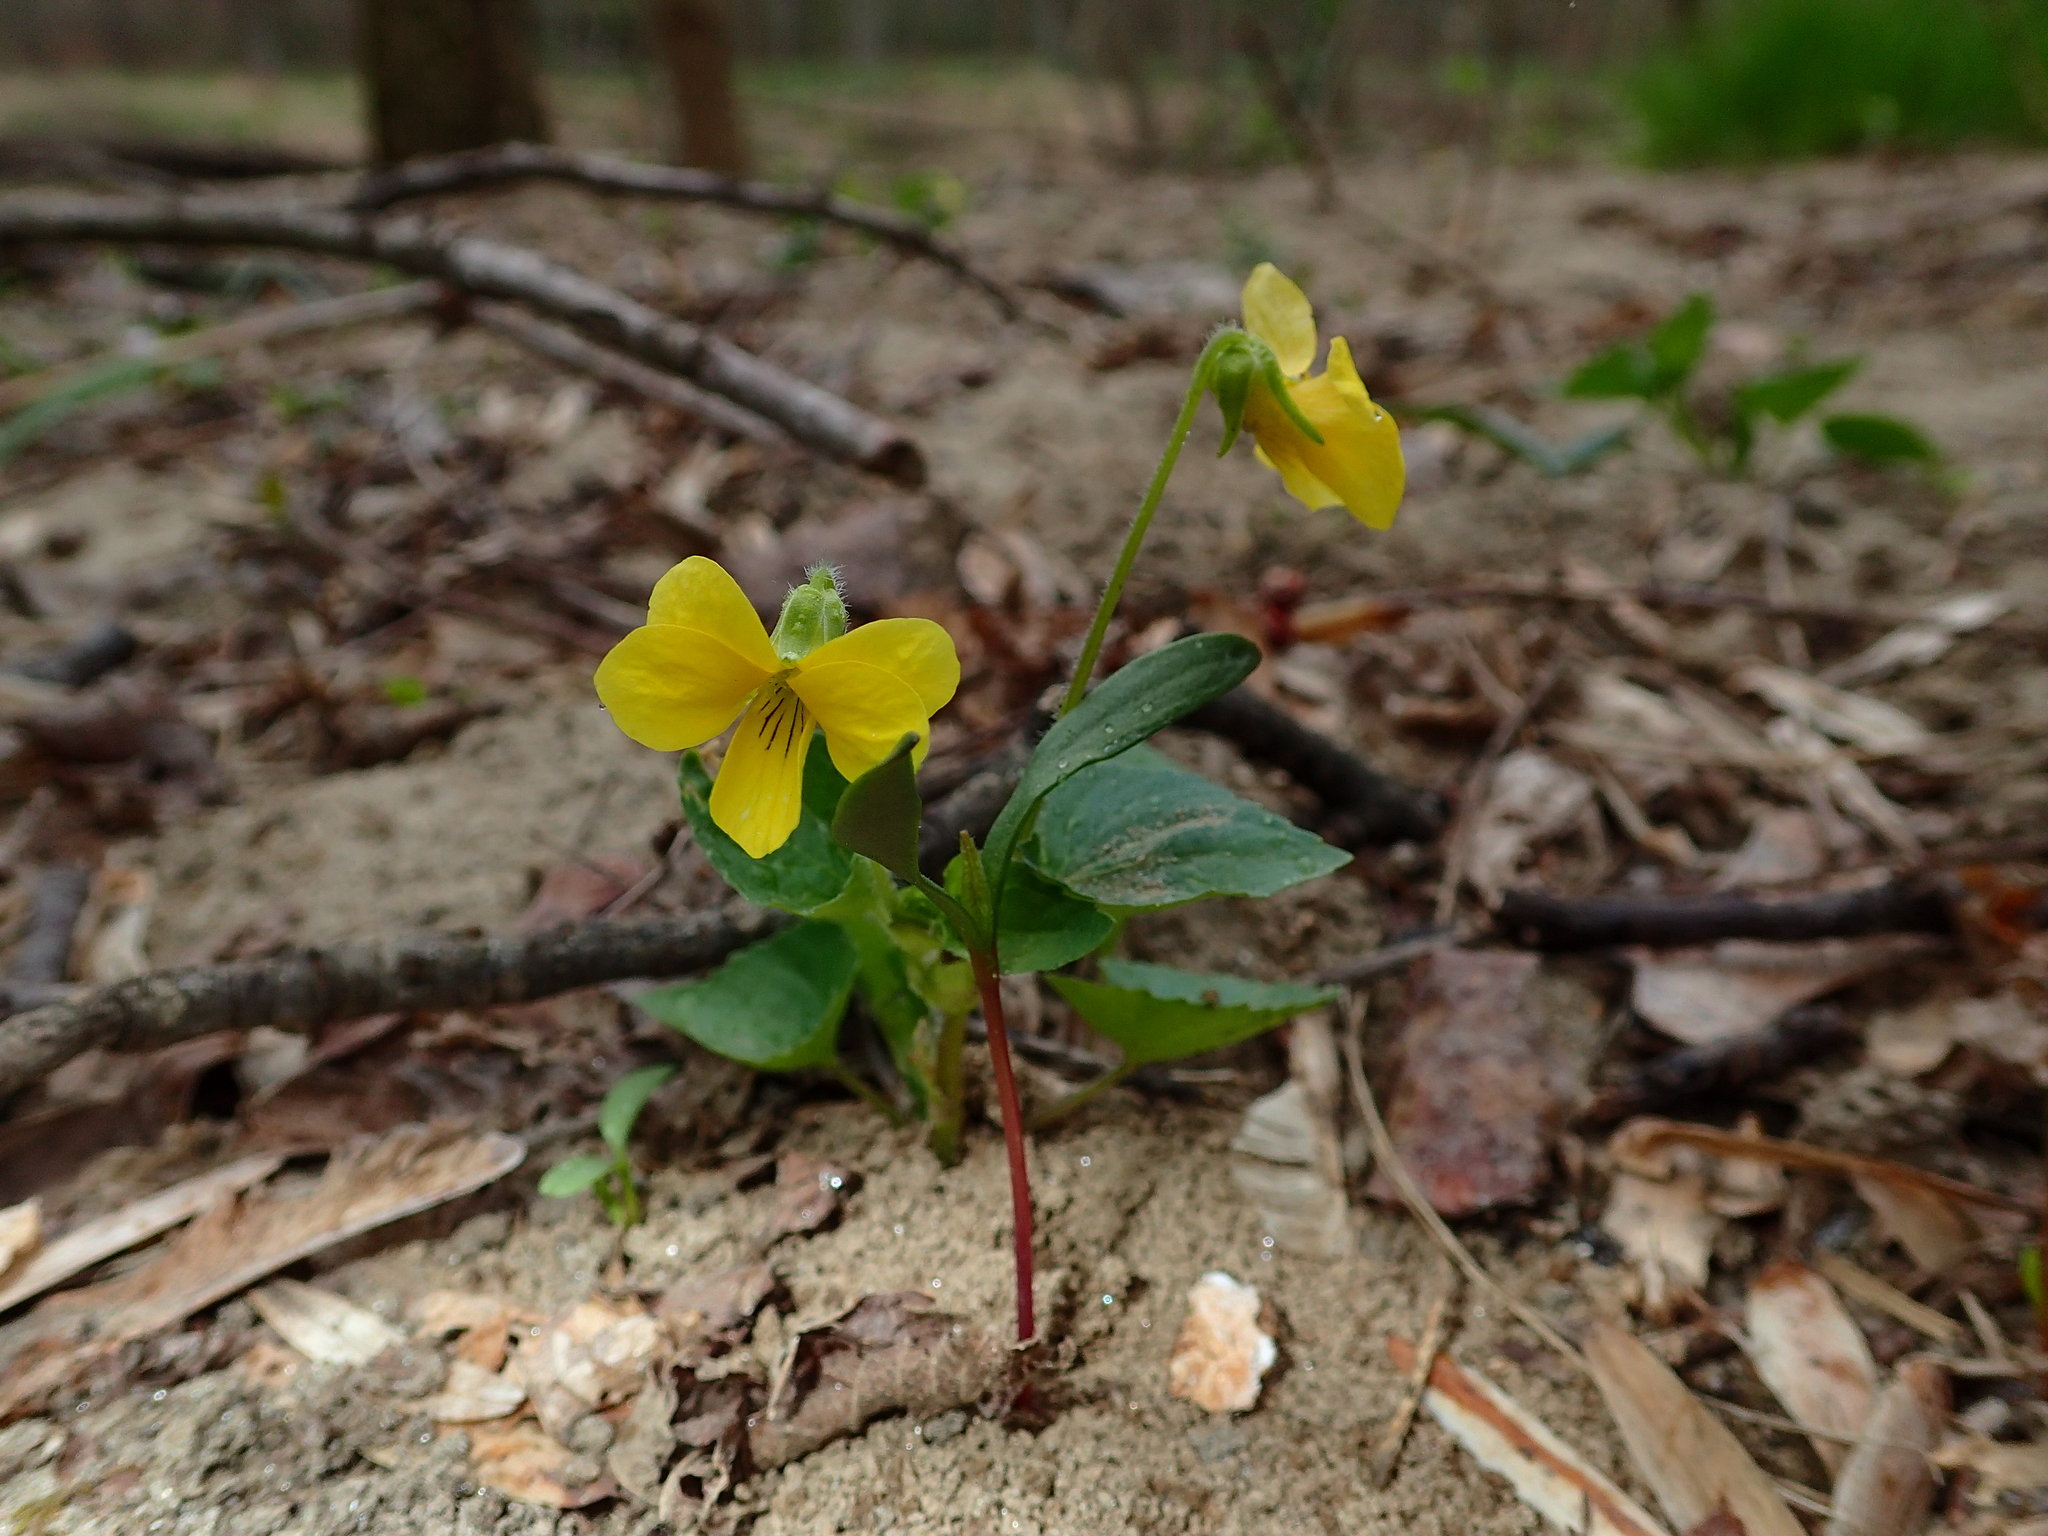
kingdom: Plantae
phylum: Tracheophyta
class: Magnoliopsida
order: Malpighiales
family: Violaceae
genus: Viola
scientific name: Viola eriocarpa
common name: Smooth yellow violet
